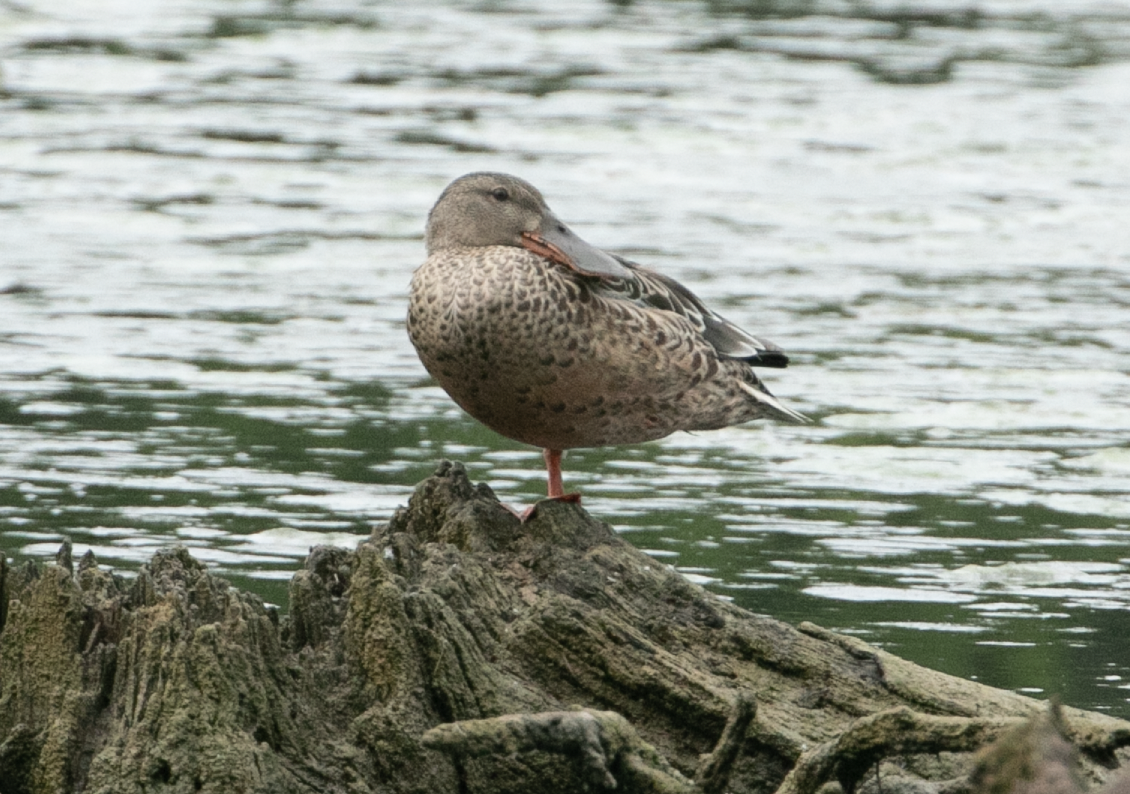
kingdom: Animalia
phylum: Chordata
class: Aves
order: Anseriformes
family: Anatidae
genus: Spatula
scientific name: Spatula clypeata
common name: Northern shoveler
